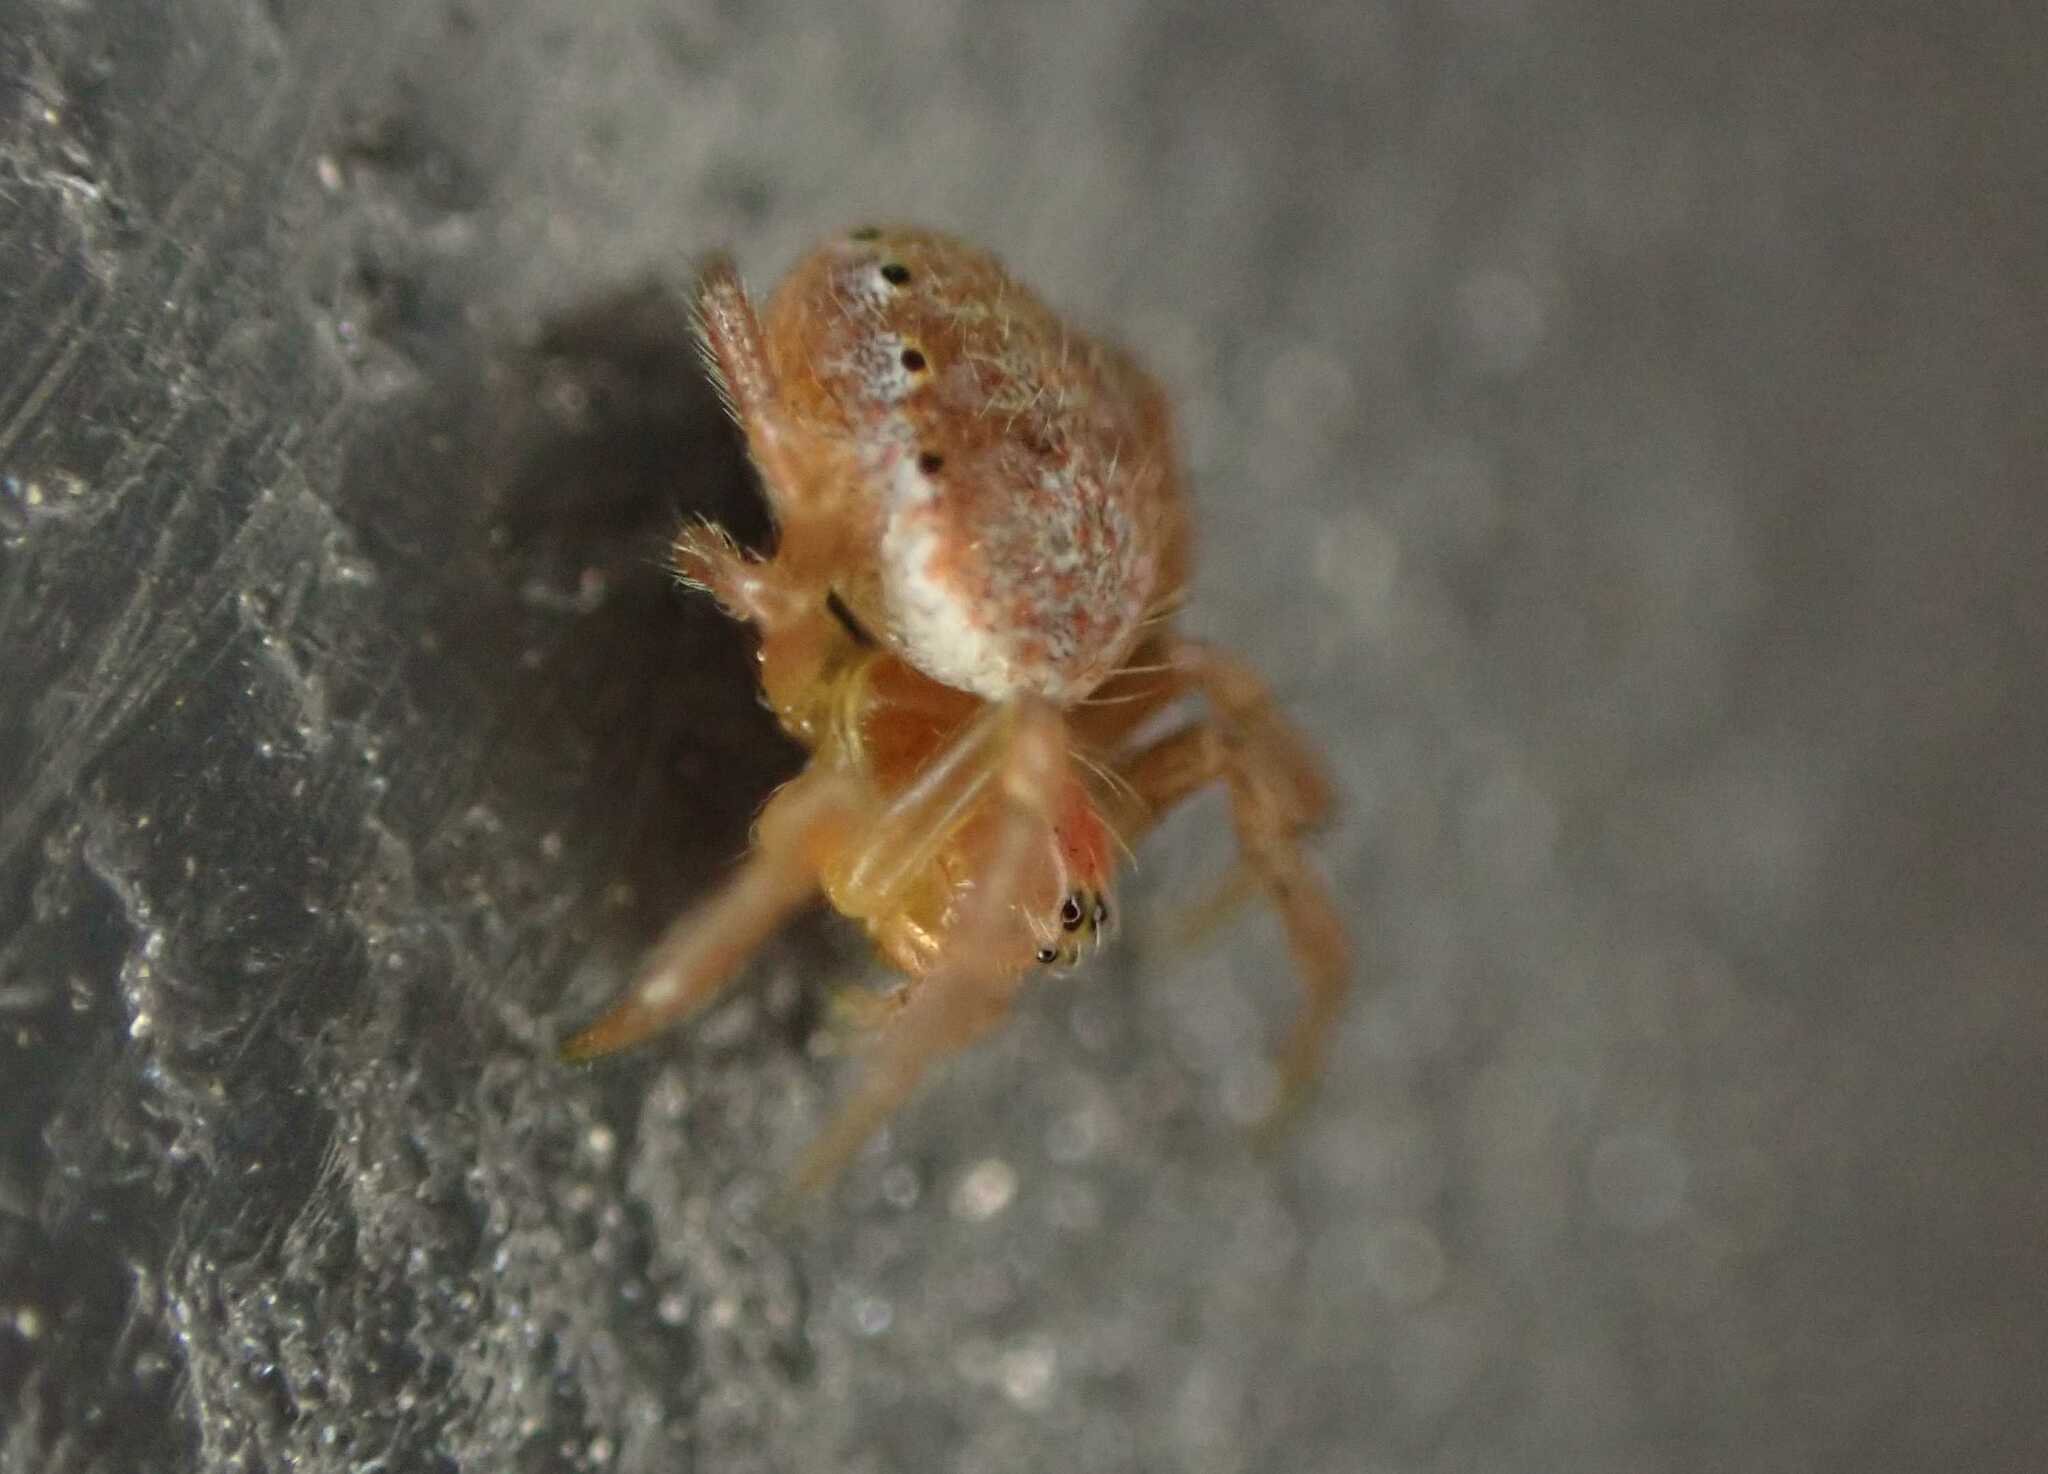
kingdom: Animalia
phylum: Arthropoda
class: Arachnida
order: Araneae
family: Araneidae
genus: Araniella
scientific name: Araniella
